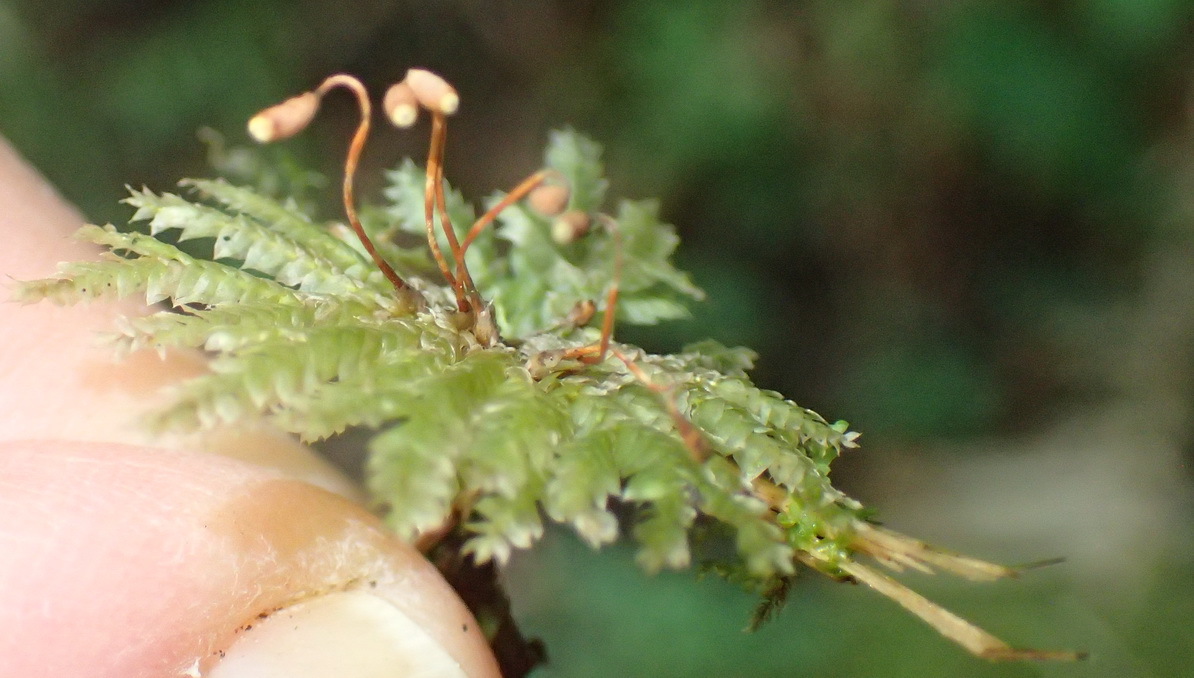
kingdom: Plantae
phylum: Bryophyta
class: Bryopsida
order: Hypopterygiales
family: Hypopterygiaceae
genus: Hypopterygium
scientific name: Hypopterygium tamarisci
